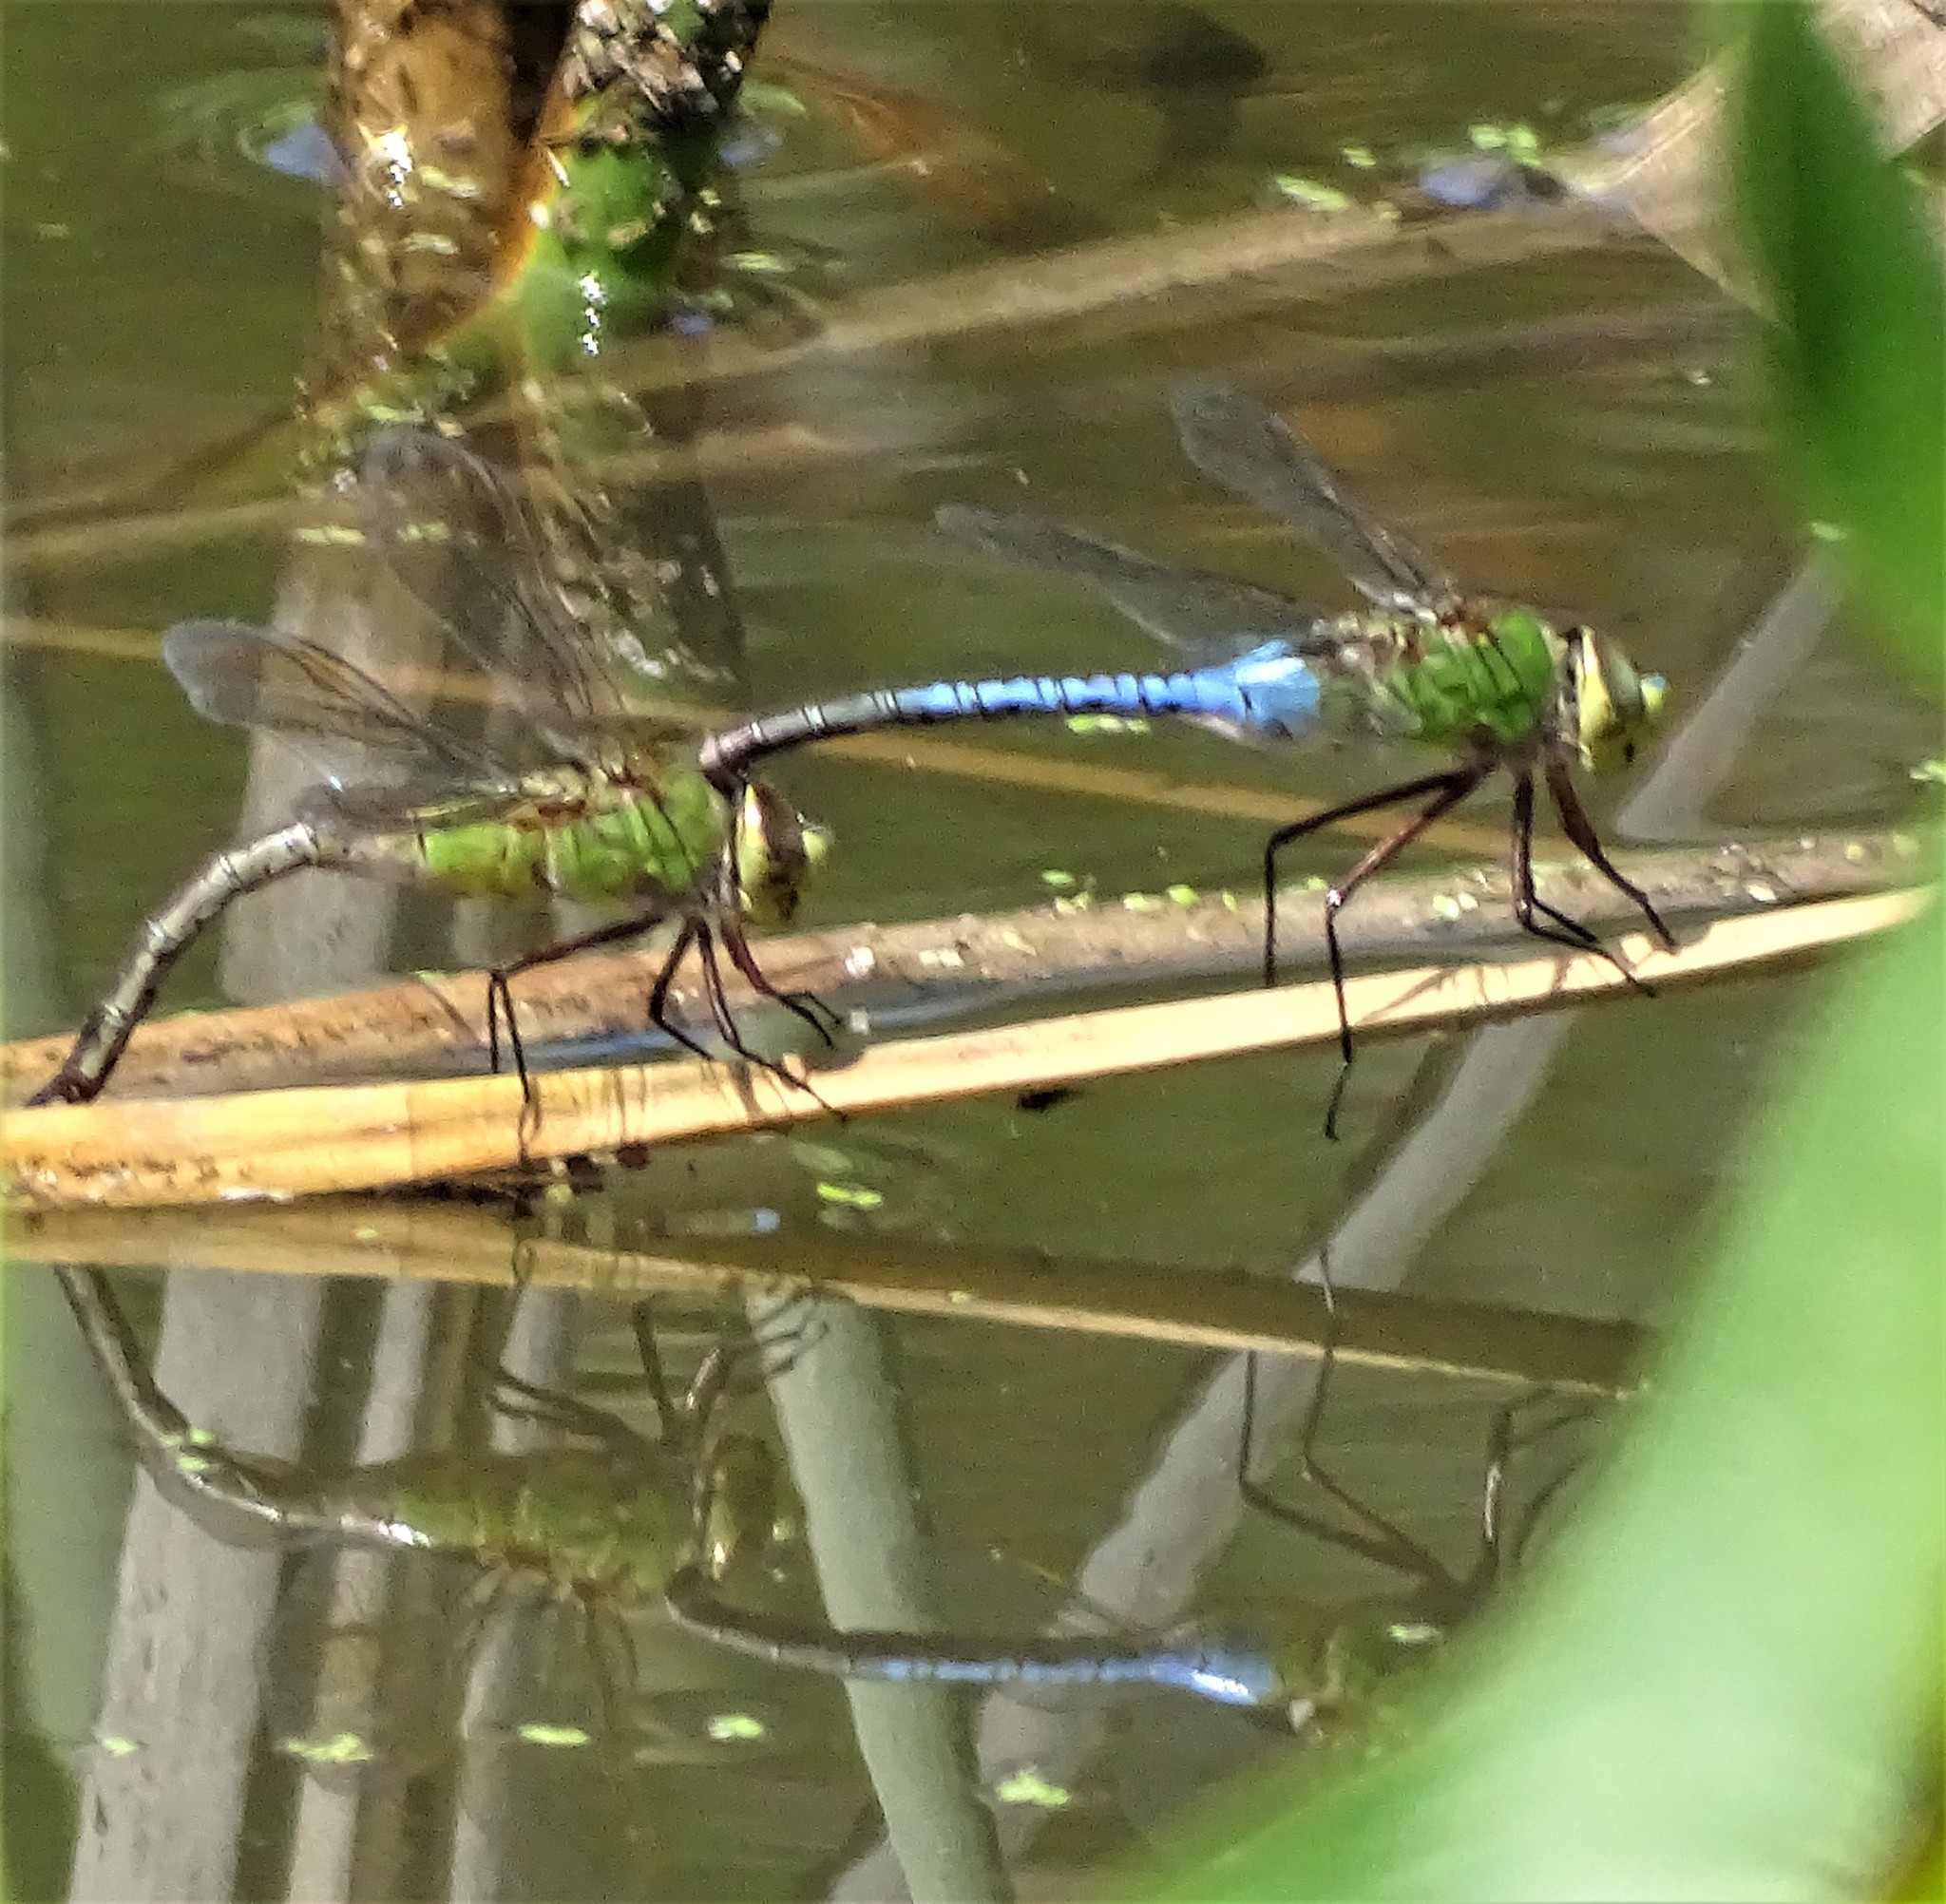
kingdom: Animalia
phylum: Arthropoda
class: Insecta
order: Odonata
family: Aeshnidae
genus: Anax
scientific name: Anax junius
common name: Common green darner
